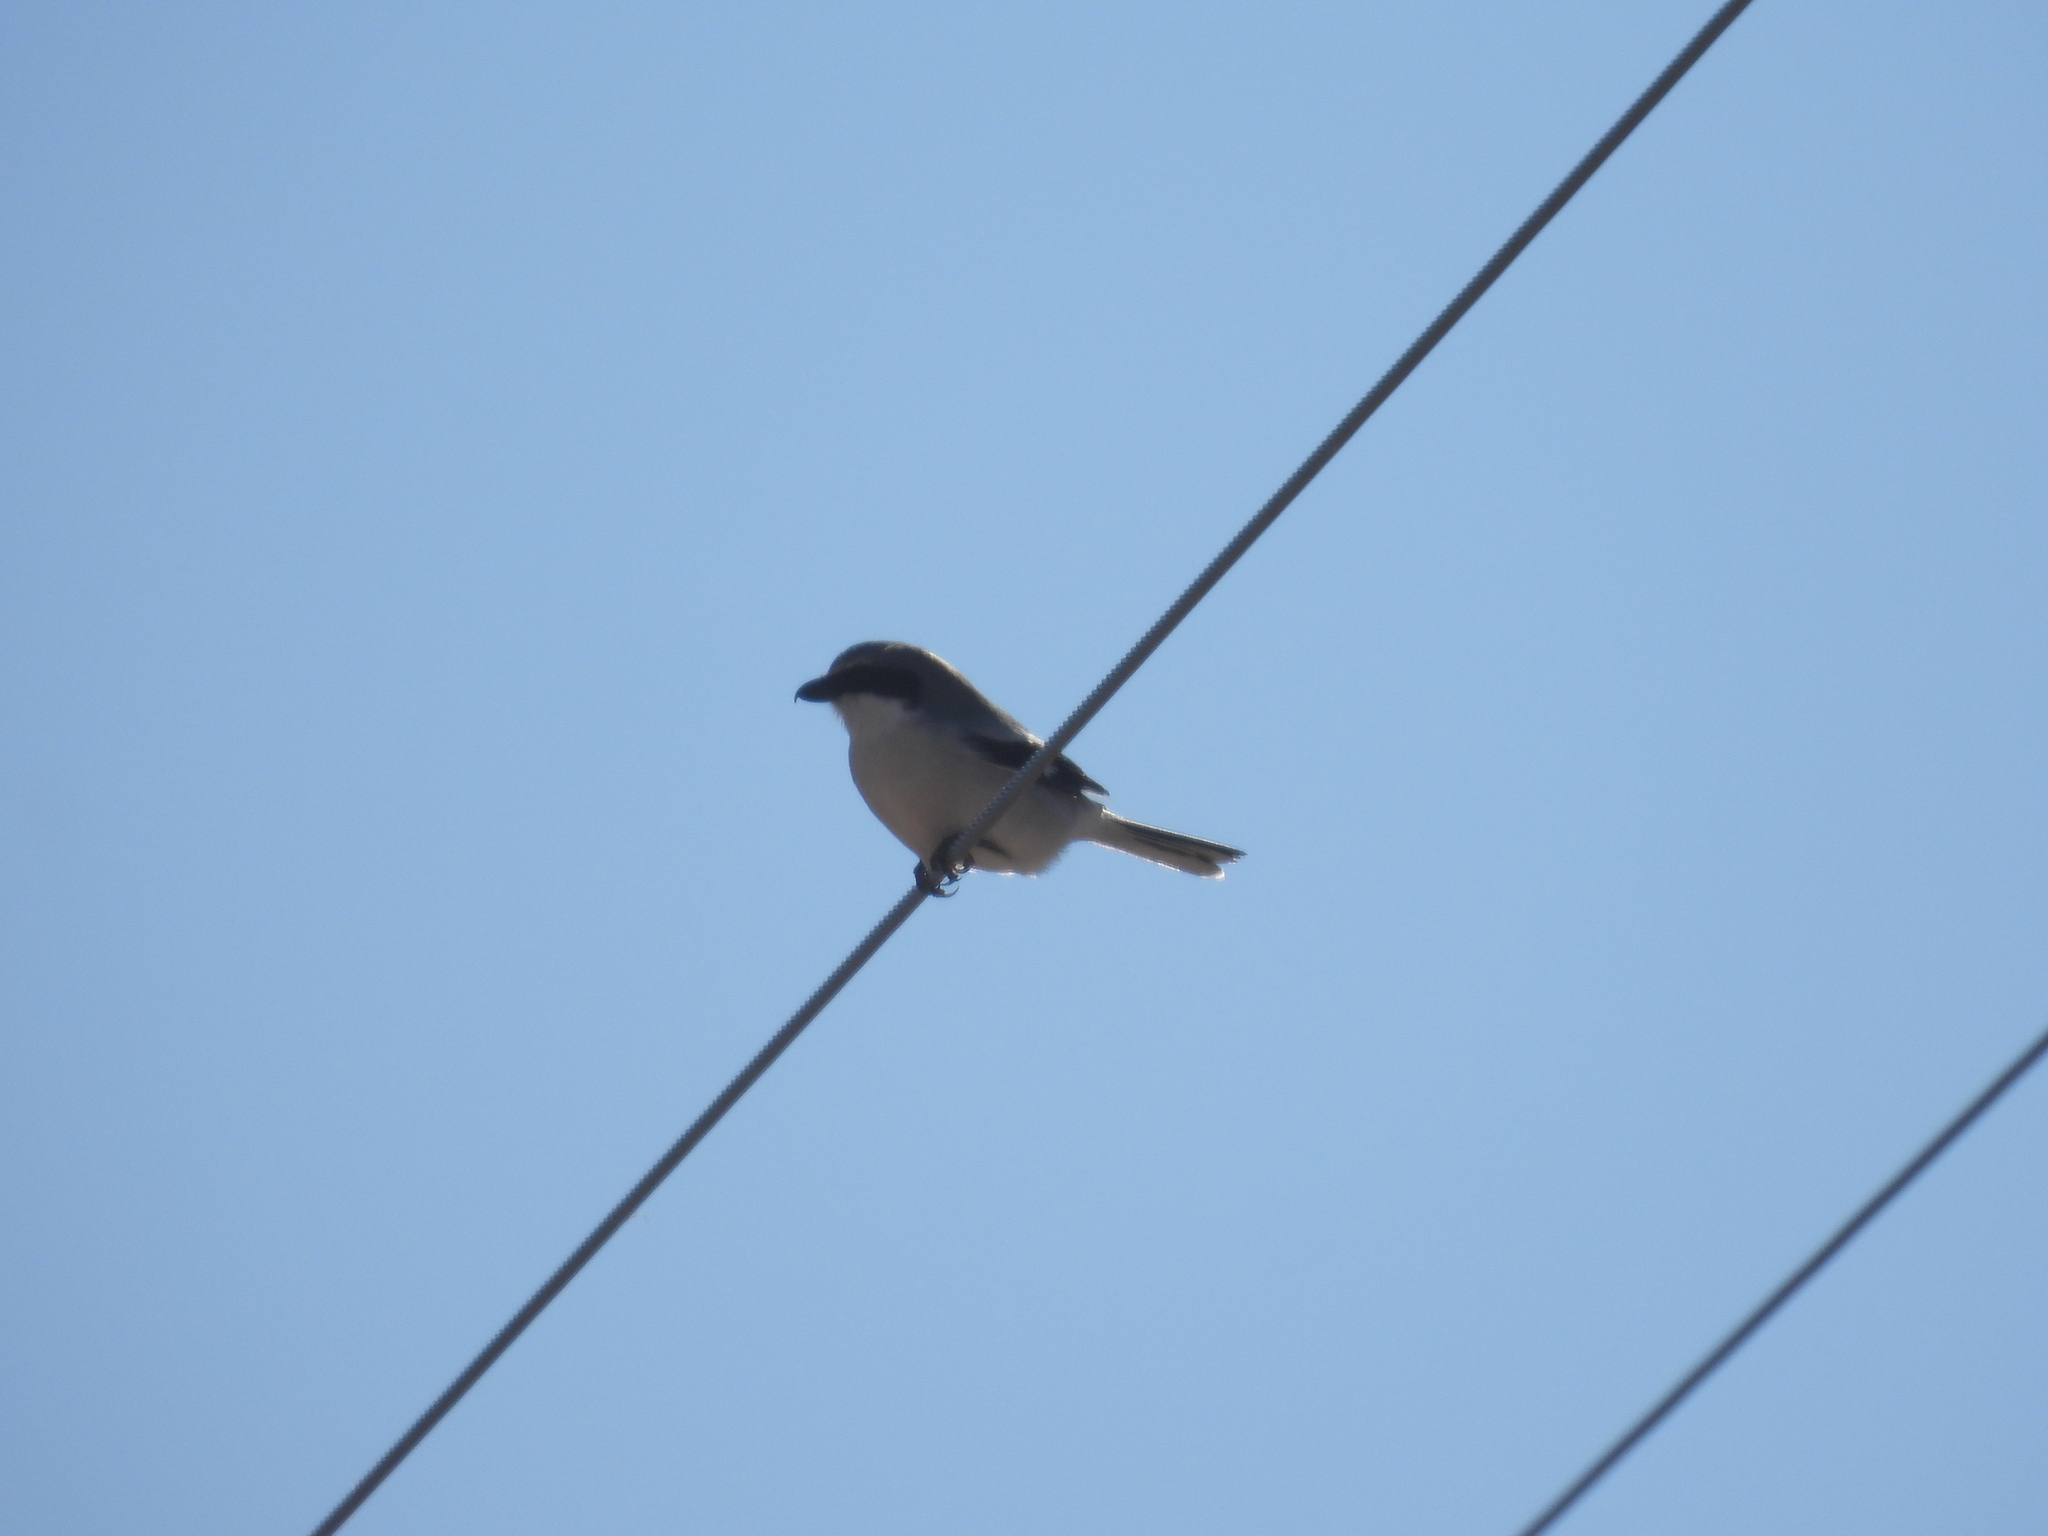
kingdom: Animalia
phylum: Chordata
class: Aves
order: Passeriformes
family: Laniidae
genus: Lanius
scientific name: Lanius ludovicianus
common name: Loggerhead shrike
